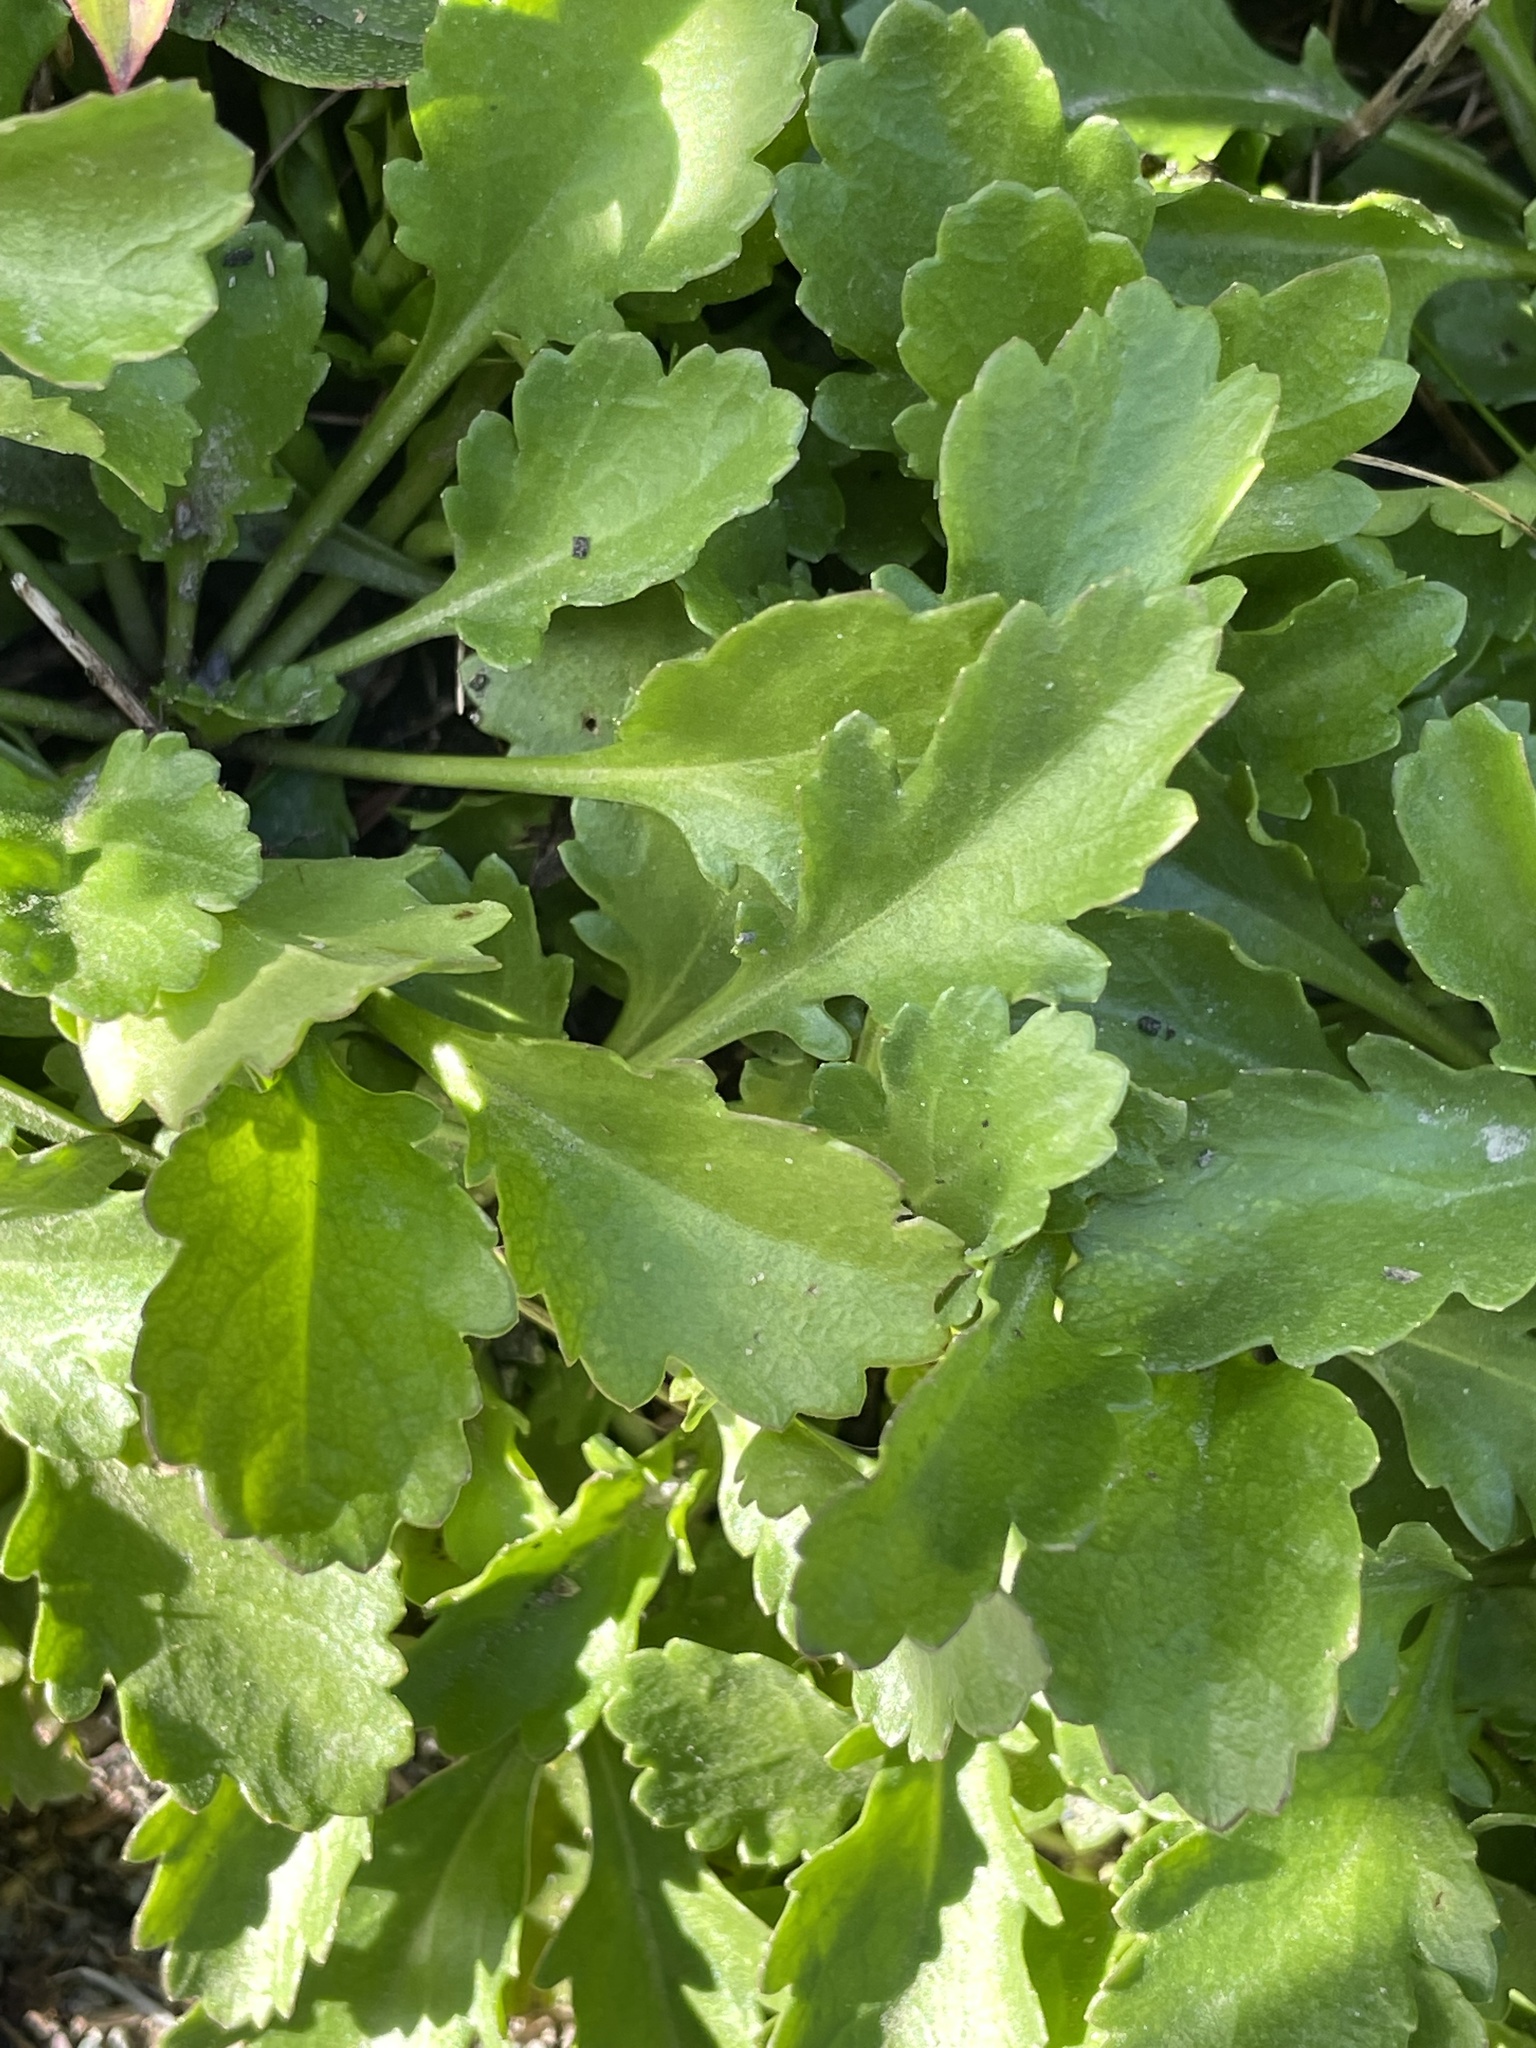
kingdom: Plantae
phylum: Tracheophyta
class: Magnoliopsida
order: Asterales
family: Asteraceae
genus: Leucanthemum
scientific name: Leucanthemum vulgare
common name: Oxeye daisy
